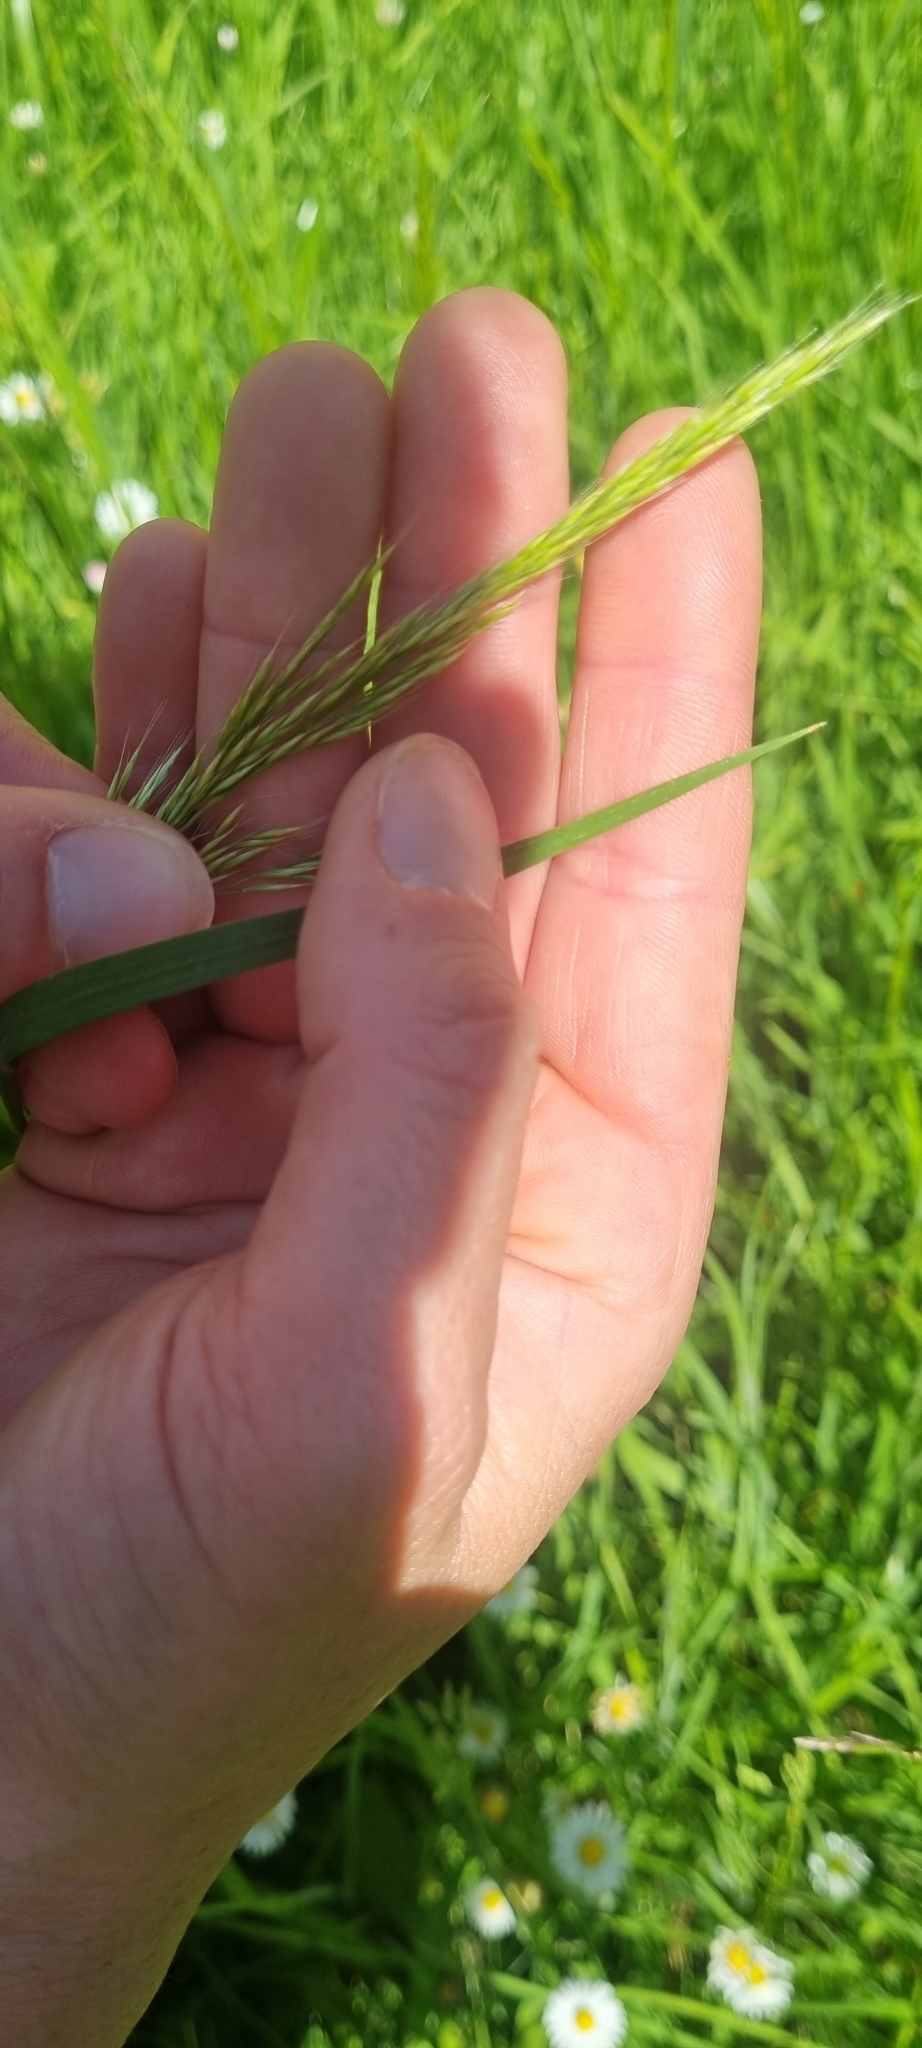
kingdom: Plantae
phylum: Tracheophyta
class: Liliopsida
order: Poales
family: Poaceae
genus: Trisetum
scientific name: Trisetum flavescens
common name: Yellow oat-grass
